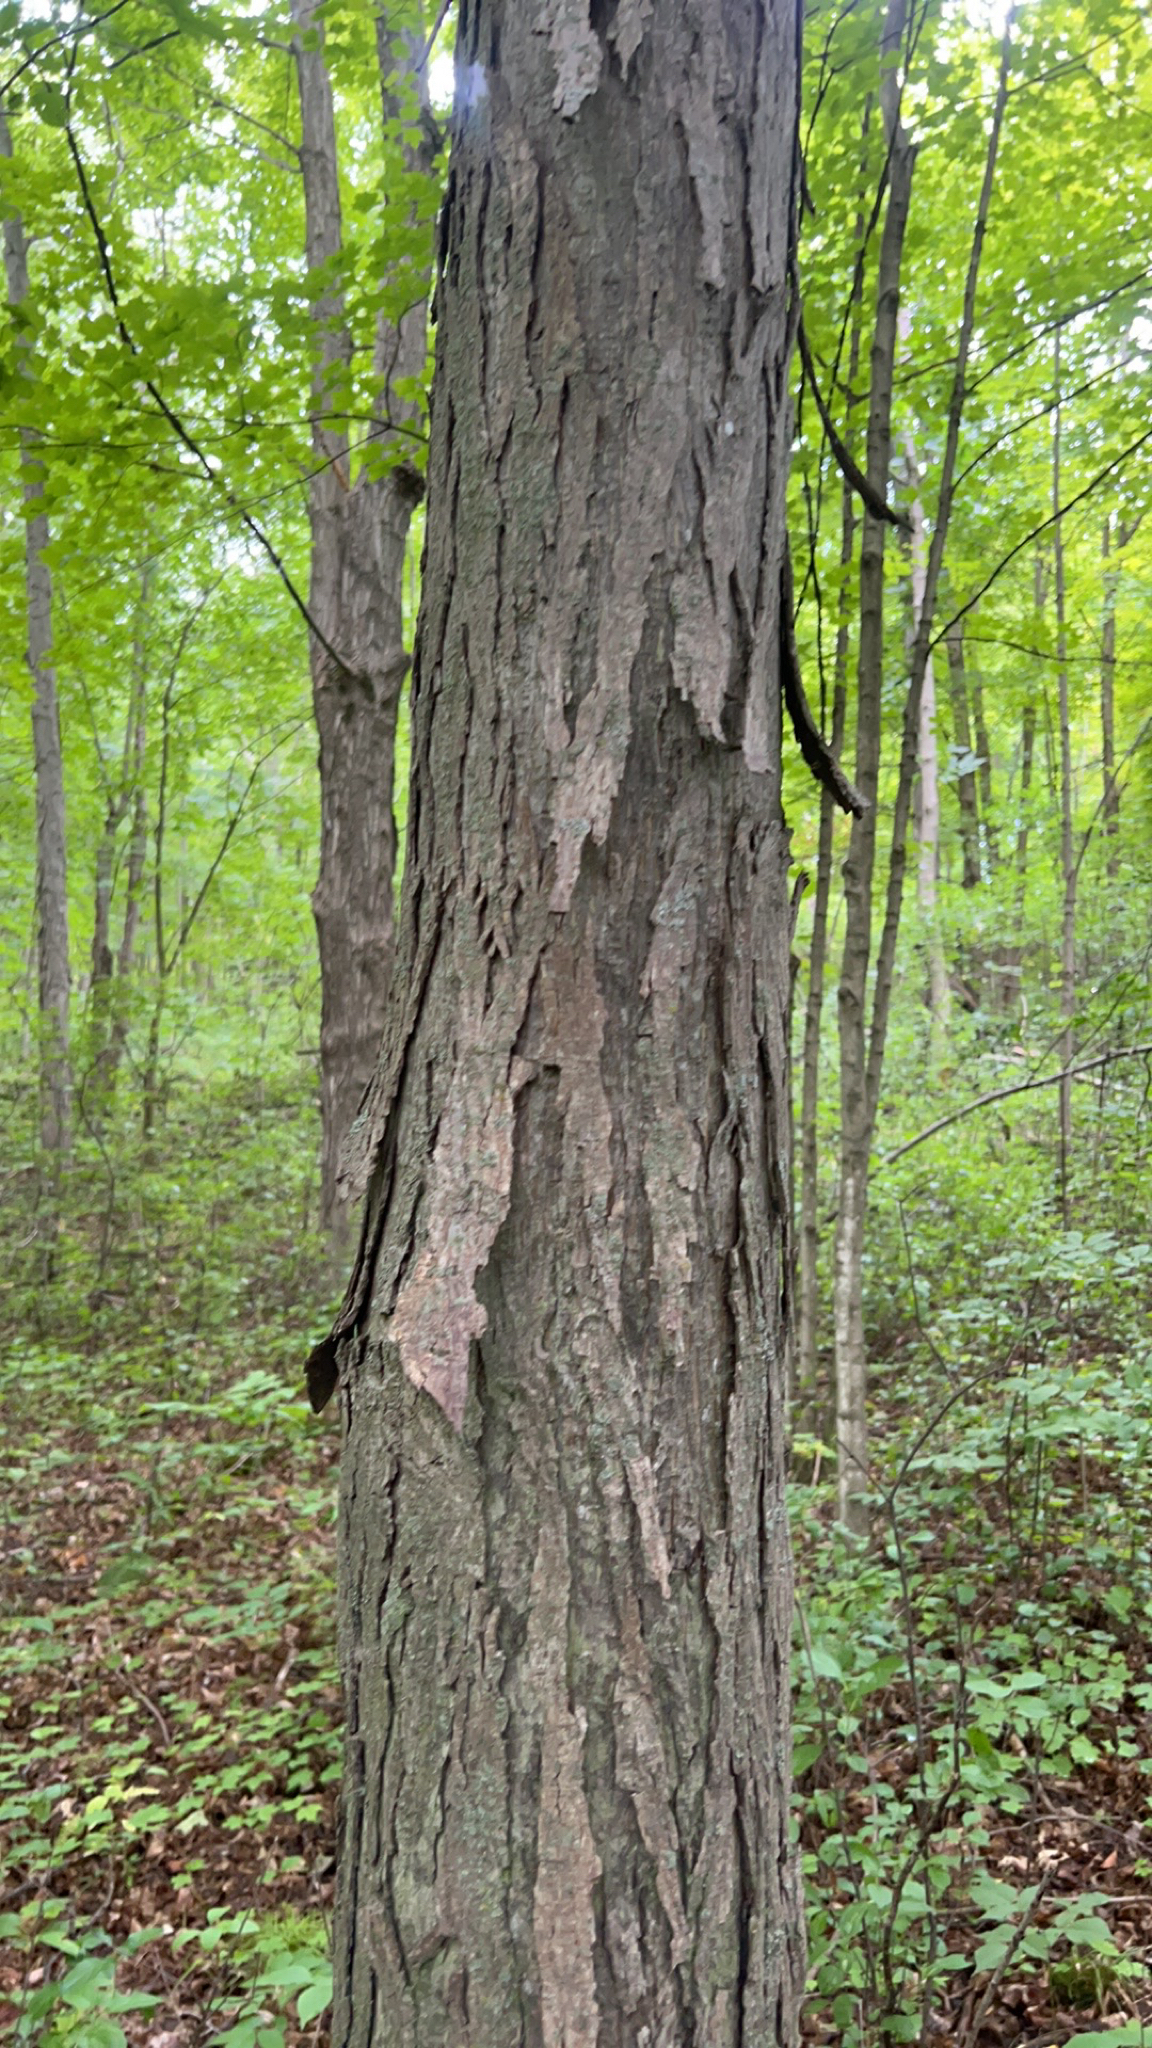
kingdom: Plantae
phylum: Tracheophyta
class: Magnoliopsida
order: Fagales
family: Juglandaceae
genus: Carya
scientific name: Carya ovata
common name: Shagbark hickory
